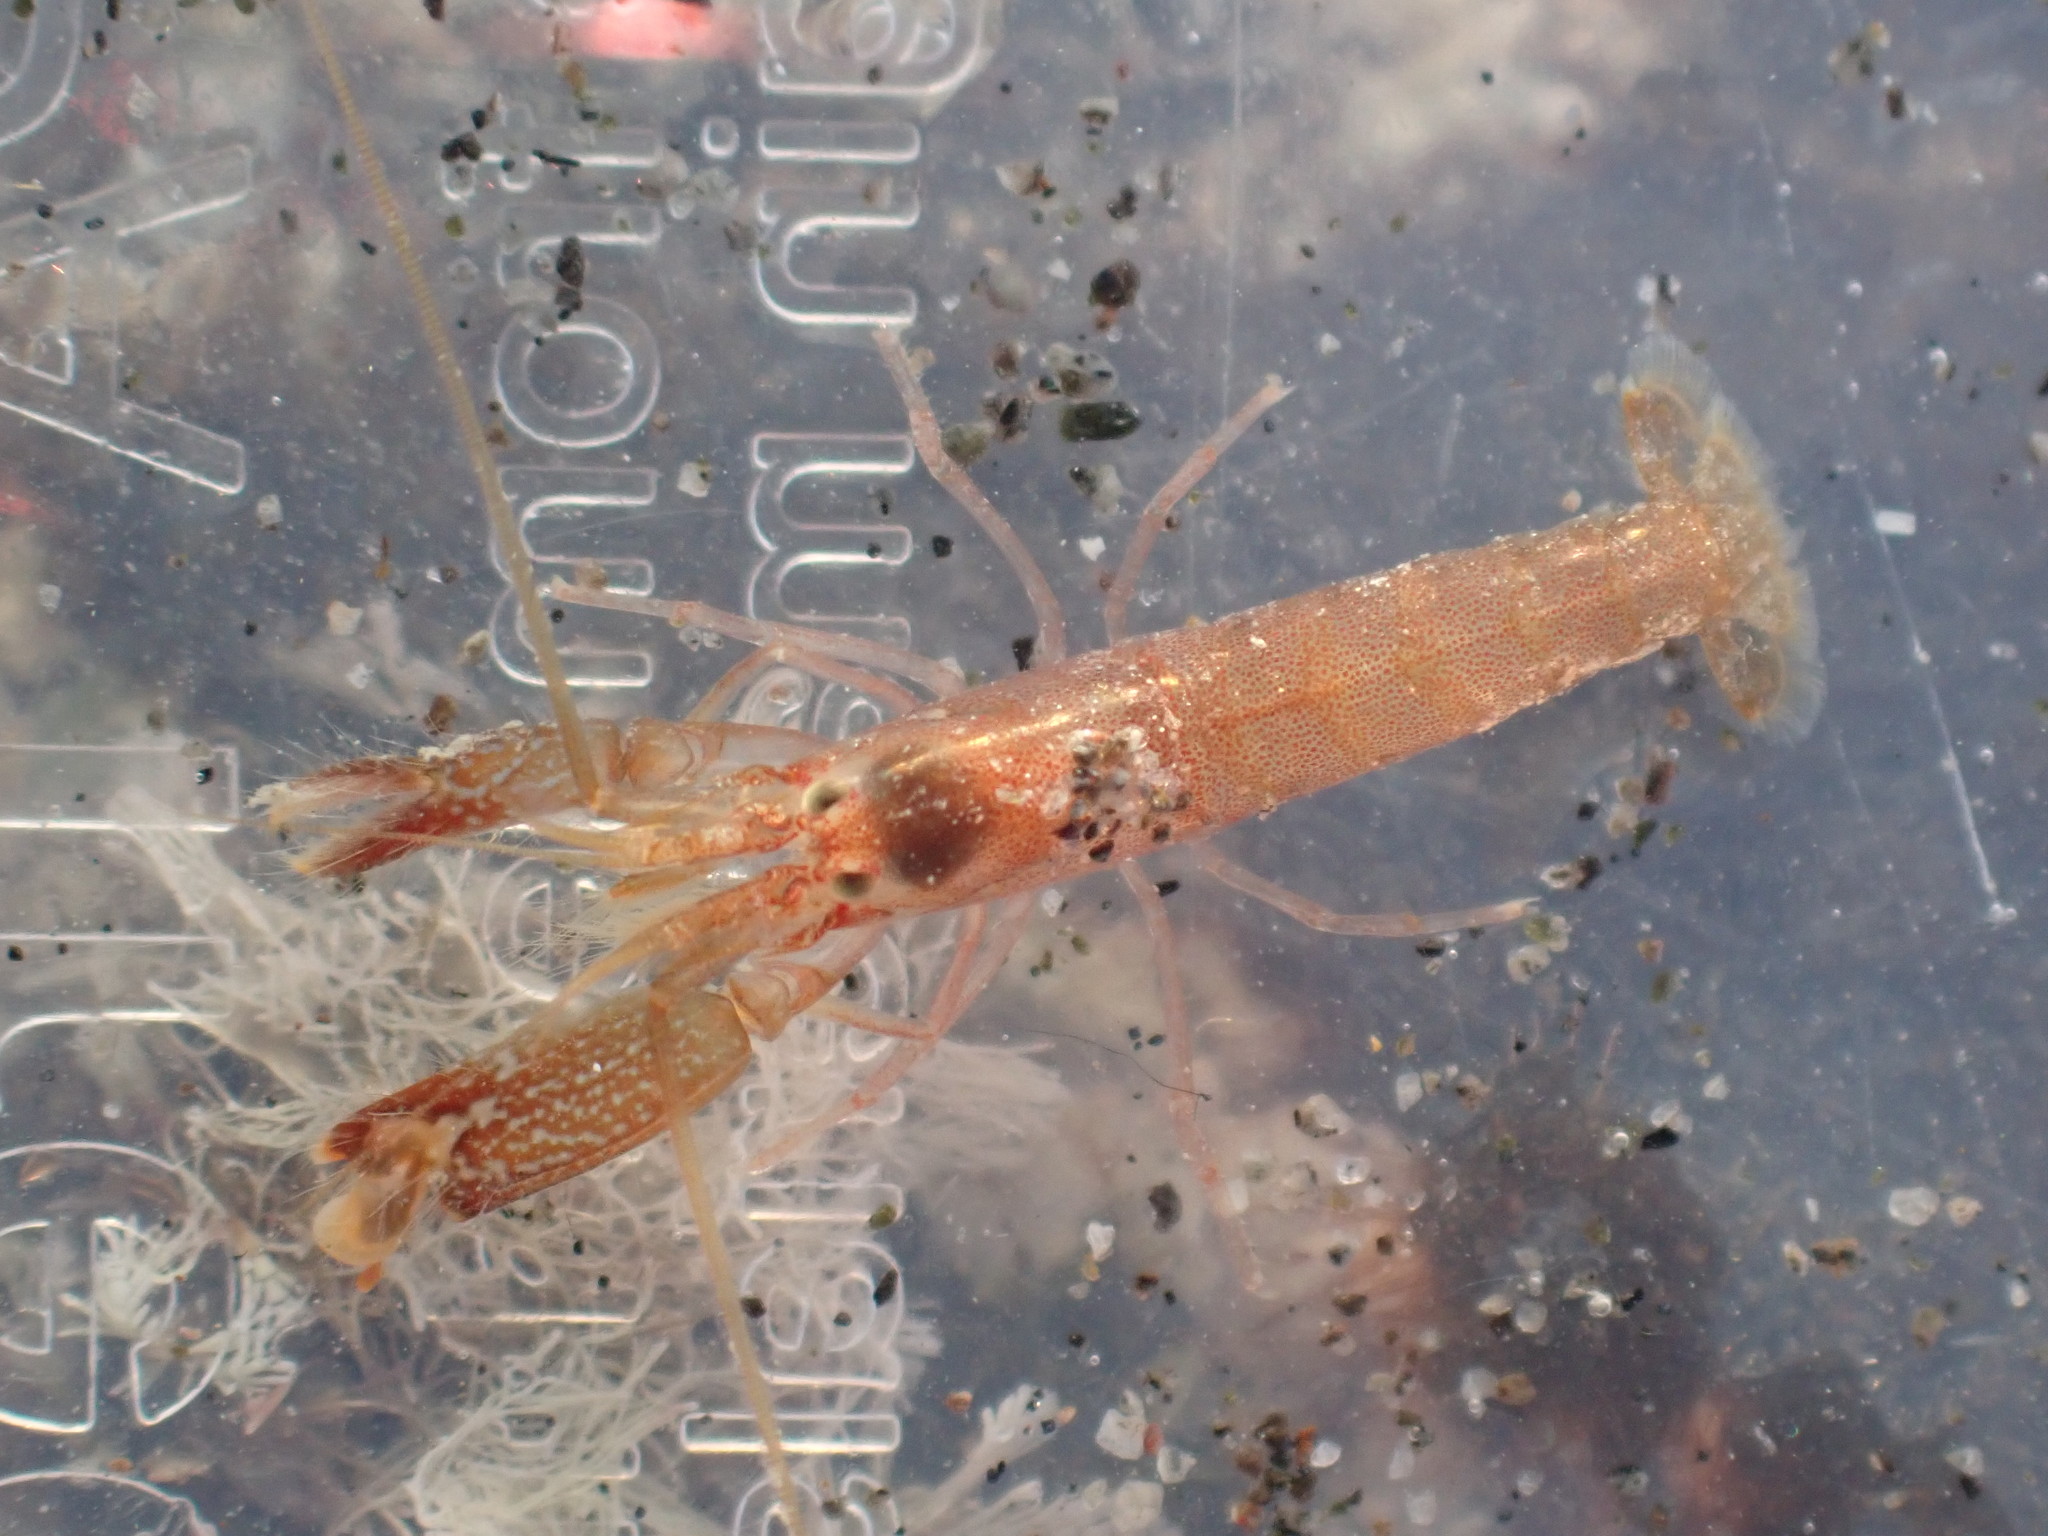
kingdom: Animalia
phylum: Arthropoda
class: Malacostraca
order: Decapoda
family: Alpheidae
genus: Alpheus
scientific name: Alpheus socialis
